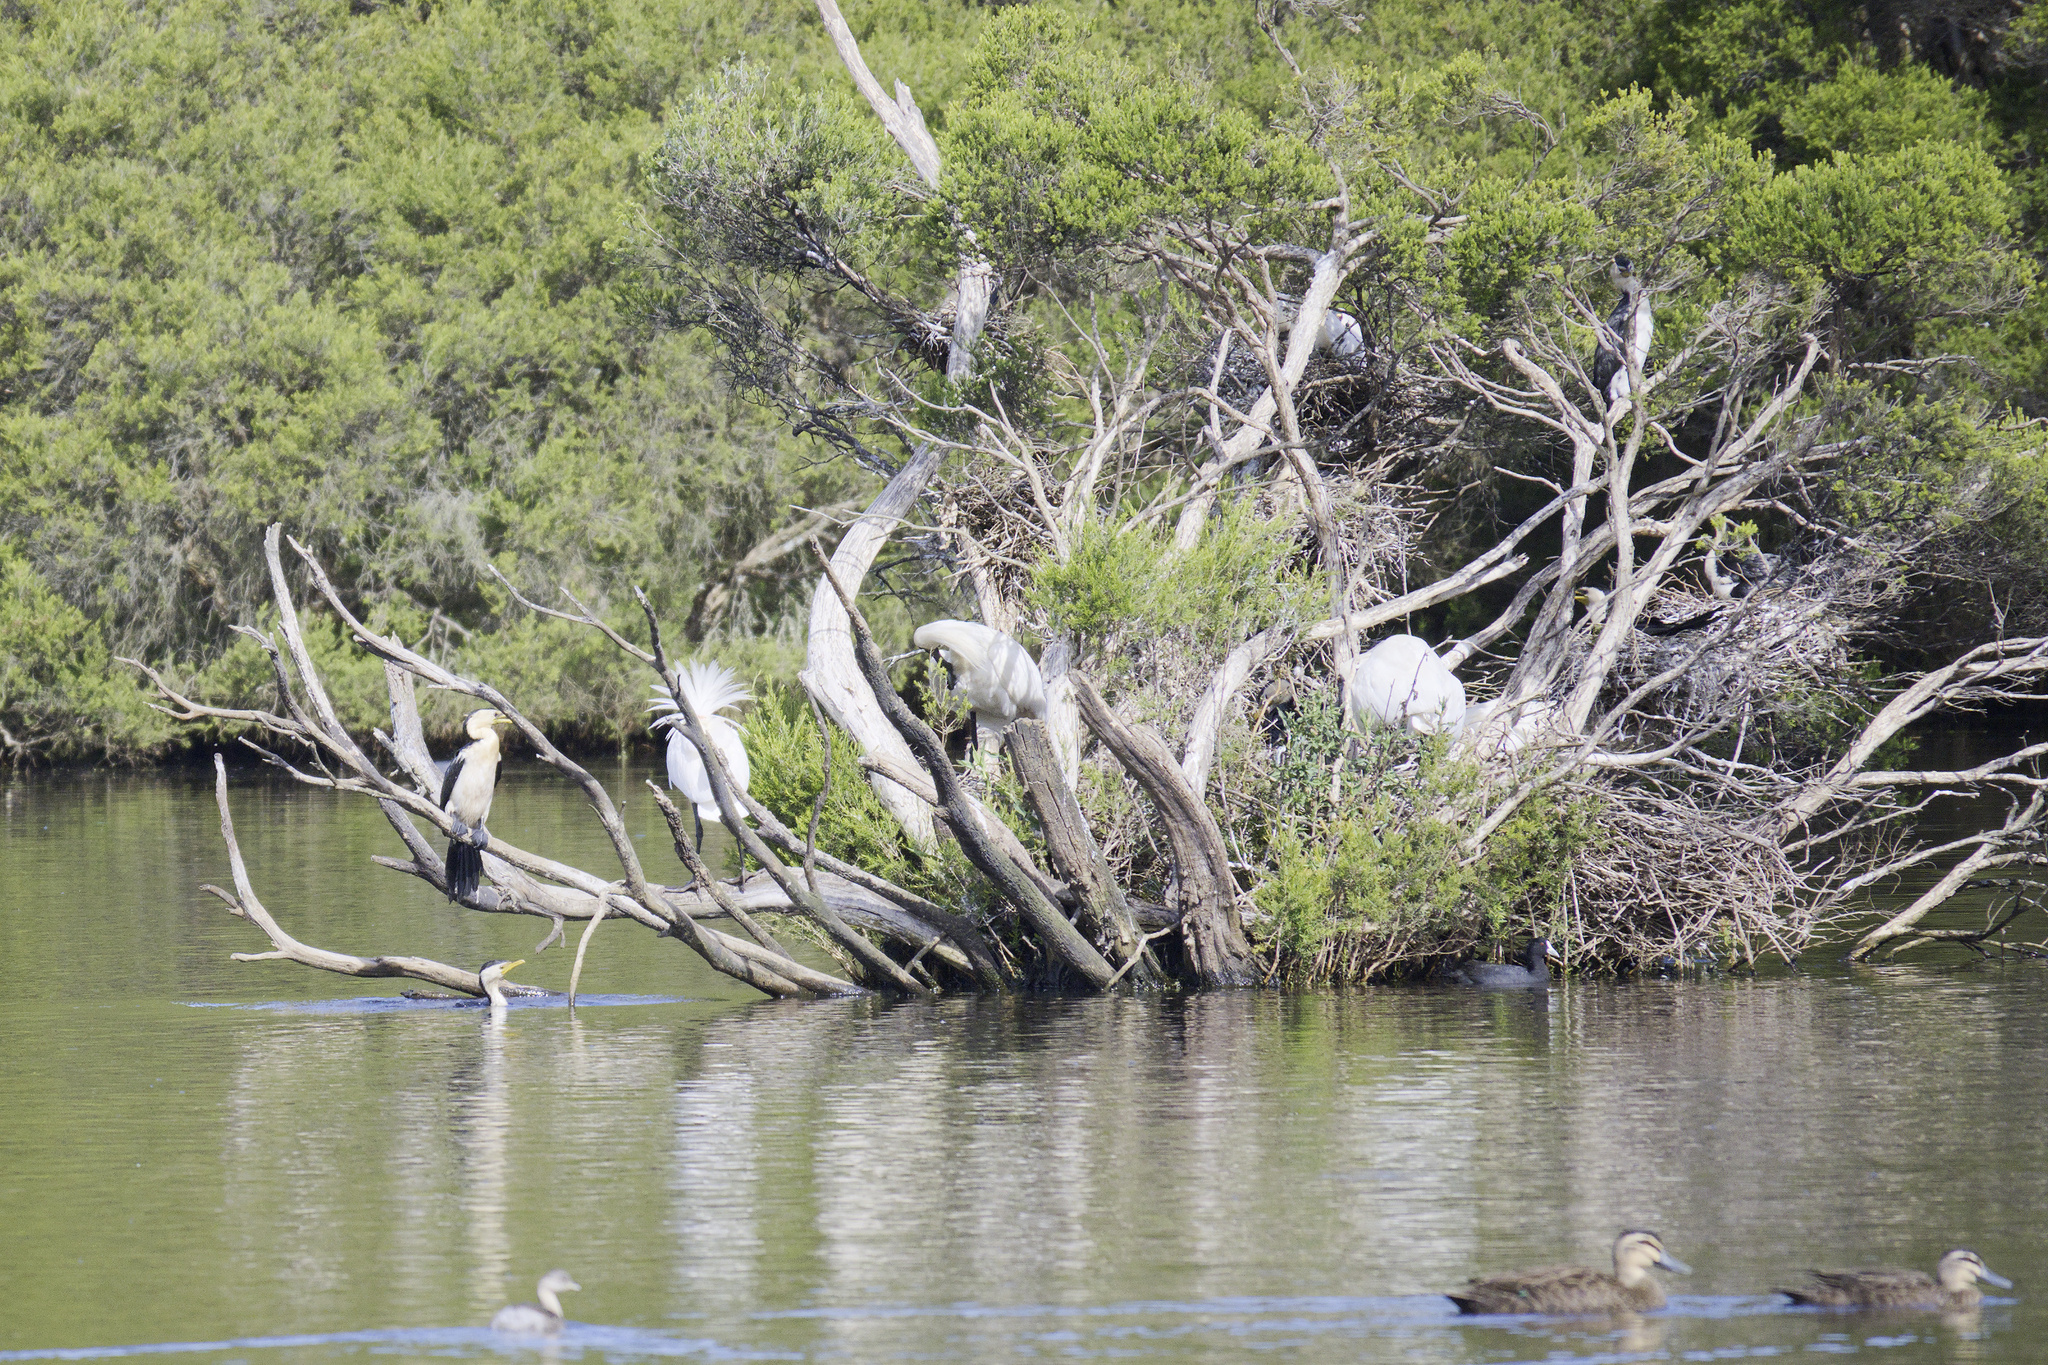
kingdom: Animalia
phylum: Chordata
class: Aves
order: Pelecaniformes
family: Threskiornithidae
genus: Platalea
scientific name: Platalea regia
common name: Royal spoonbill
